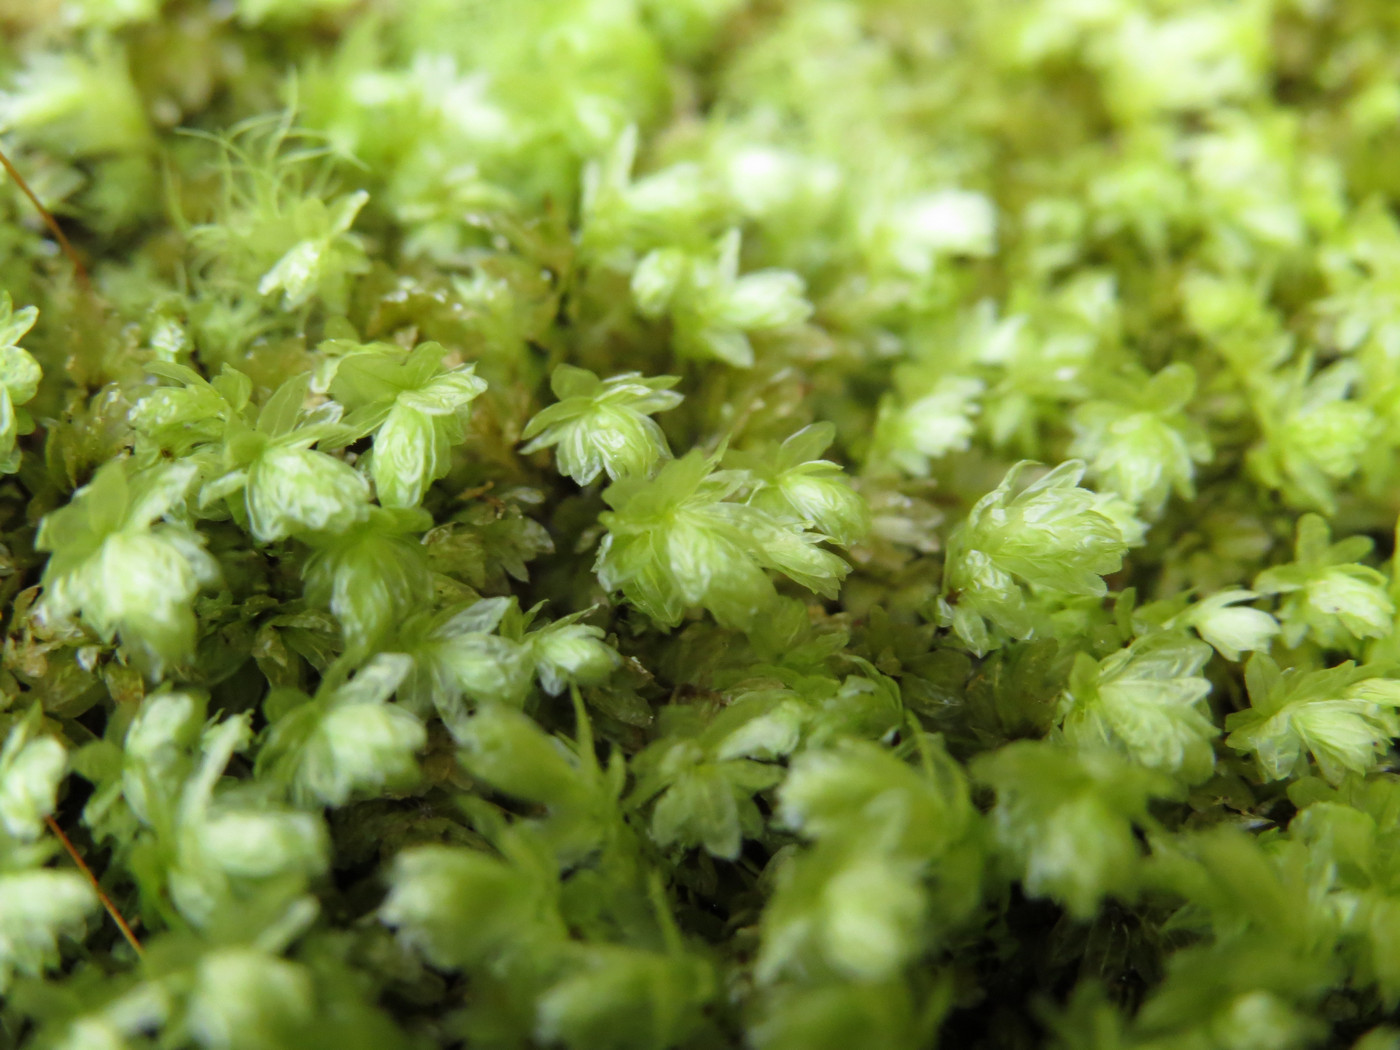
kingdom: Plantae
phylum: Bryophyta
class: Bryopsida
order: Aulacomniales
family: Aulacomniaceae
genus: Aulacomnium
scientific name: Aulacomnium heterostichum
